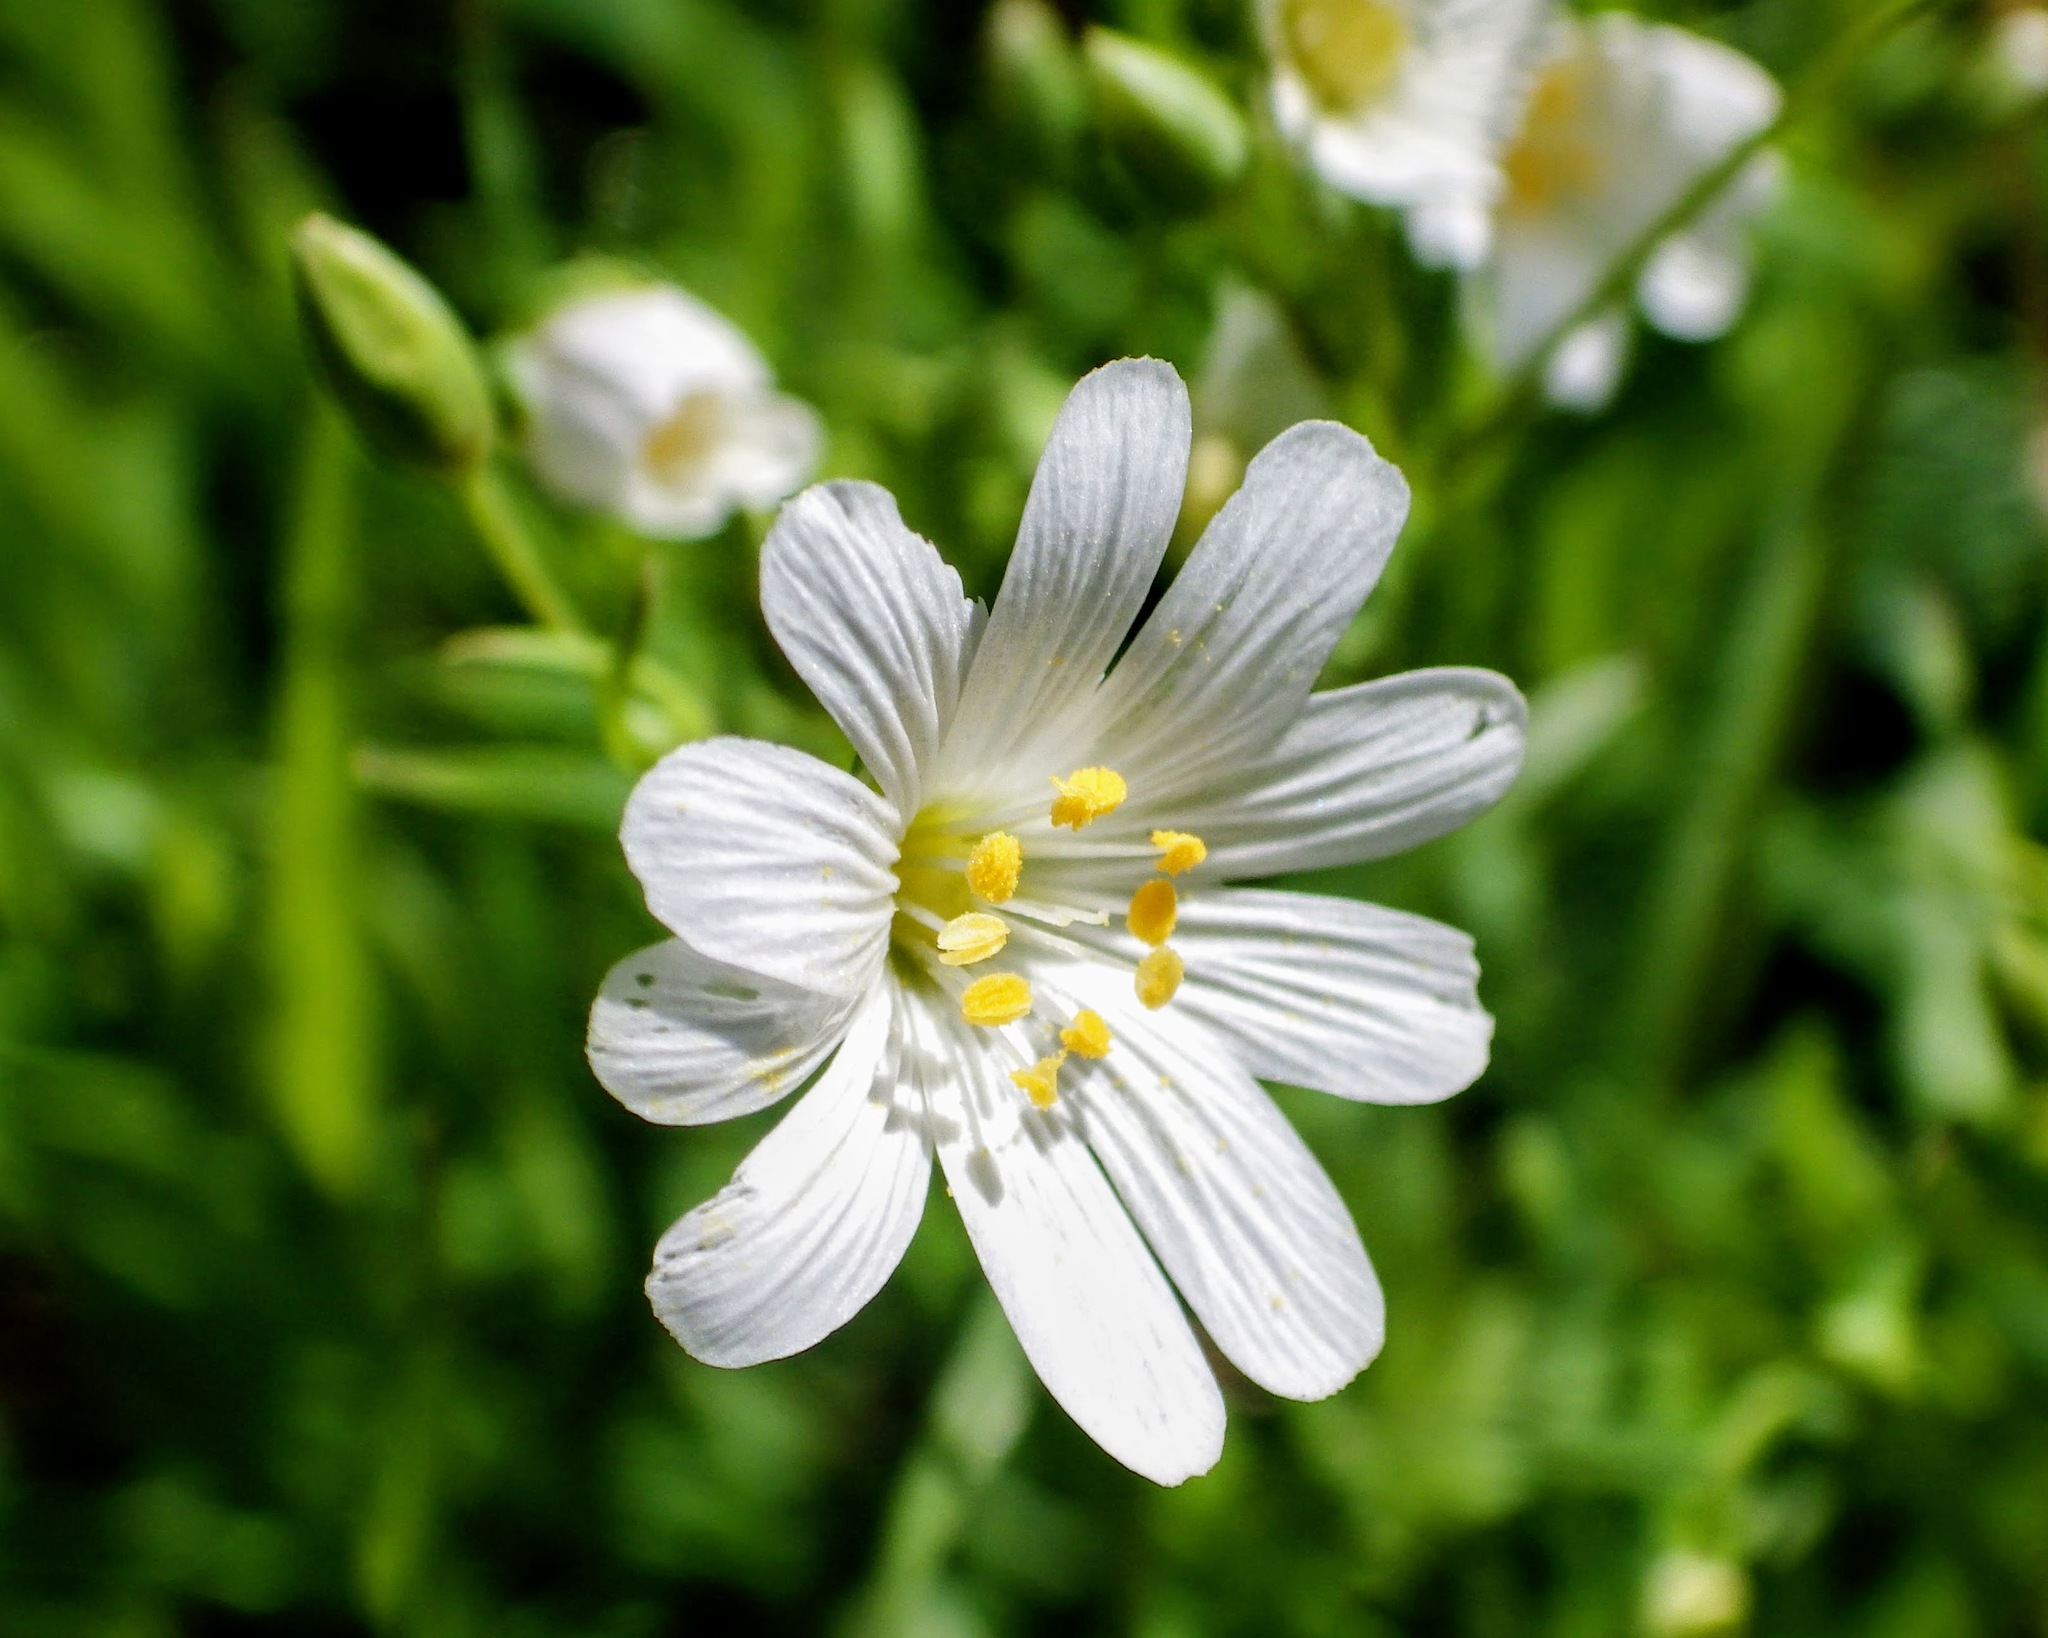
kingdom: Plantae
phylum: Tracheophyta
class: Magnoliopsida
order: Caryophyllales
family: Caryophyllaceae
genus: Rabelera
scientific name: Rabelera holostea
